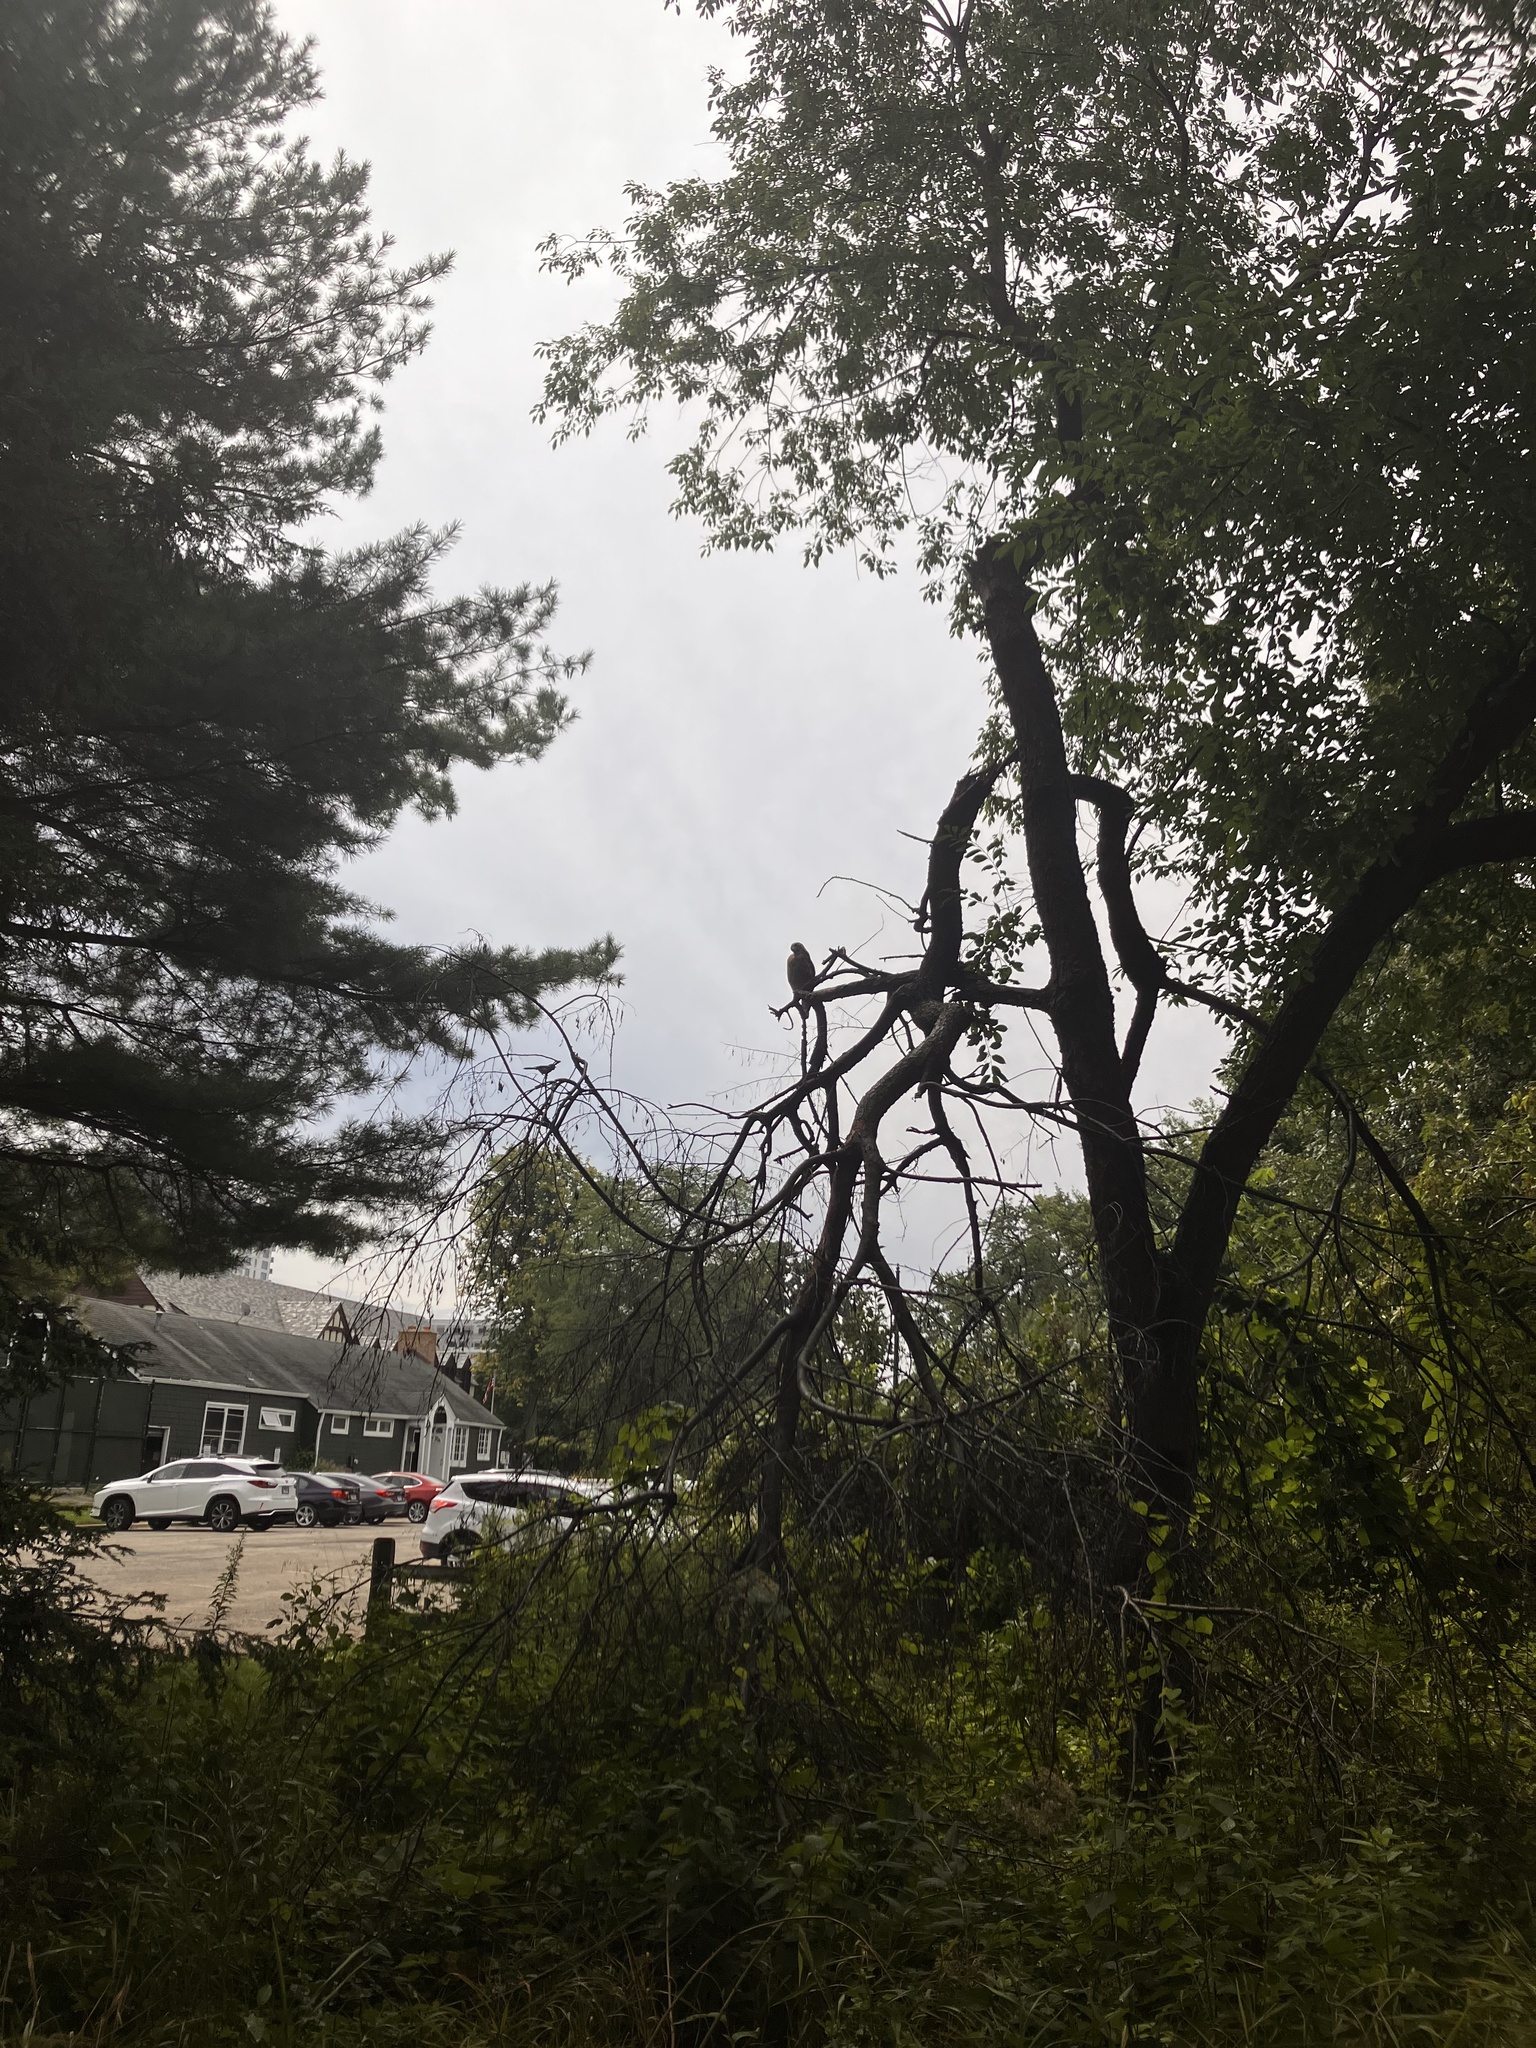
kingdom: Animalia
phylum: Chordata
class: Aves
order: Accipitriformes
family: Accipitridae
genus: Buteo
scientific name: Buteo lineatus
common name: Red-shouldered hawk
